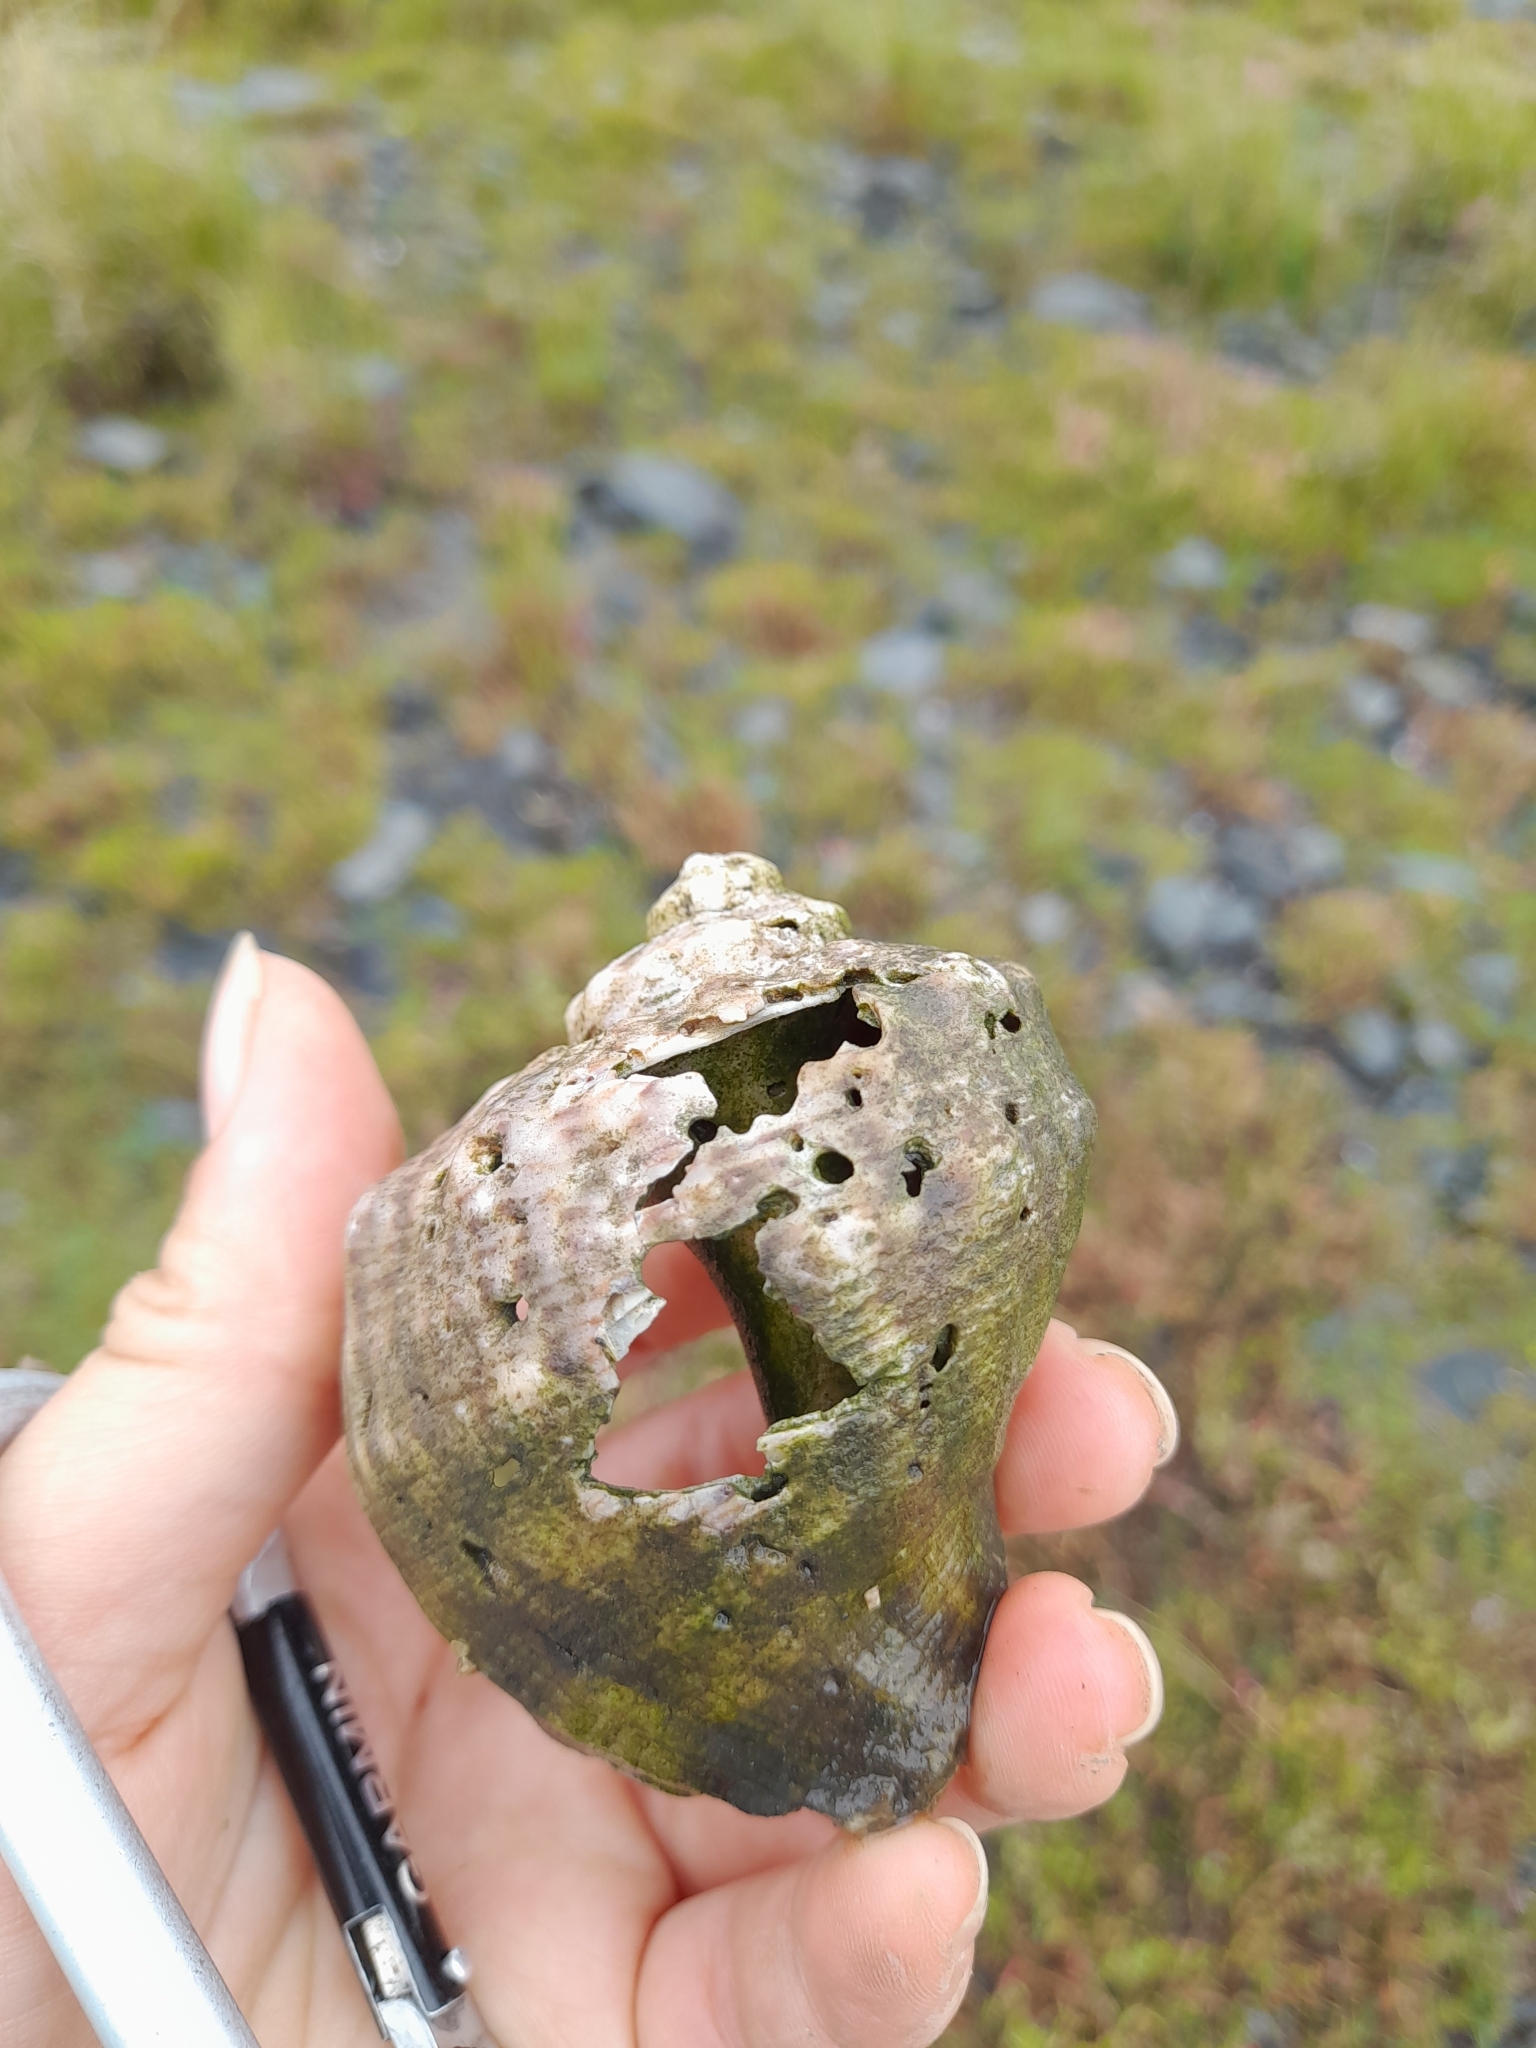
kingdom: Animalia
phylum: Mollusca
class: Gastropoda
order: Neogastropoda
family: Muricidae
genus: Rapana
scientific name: Rapana venosa
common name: Veined rapa whelk
